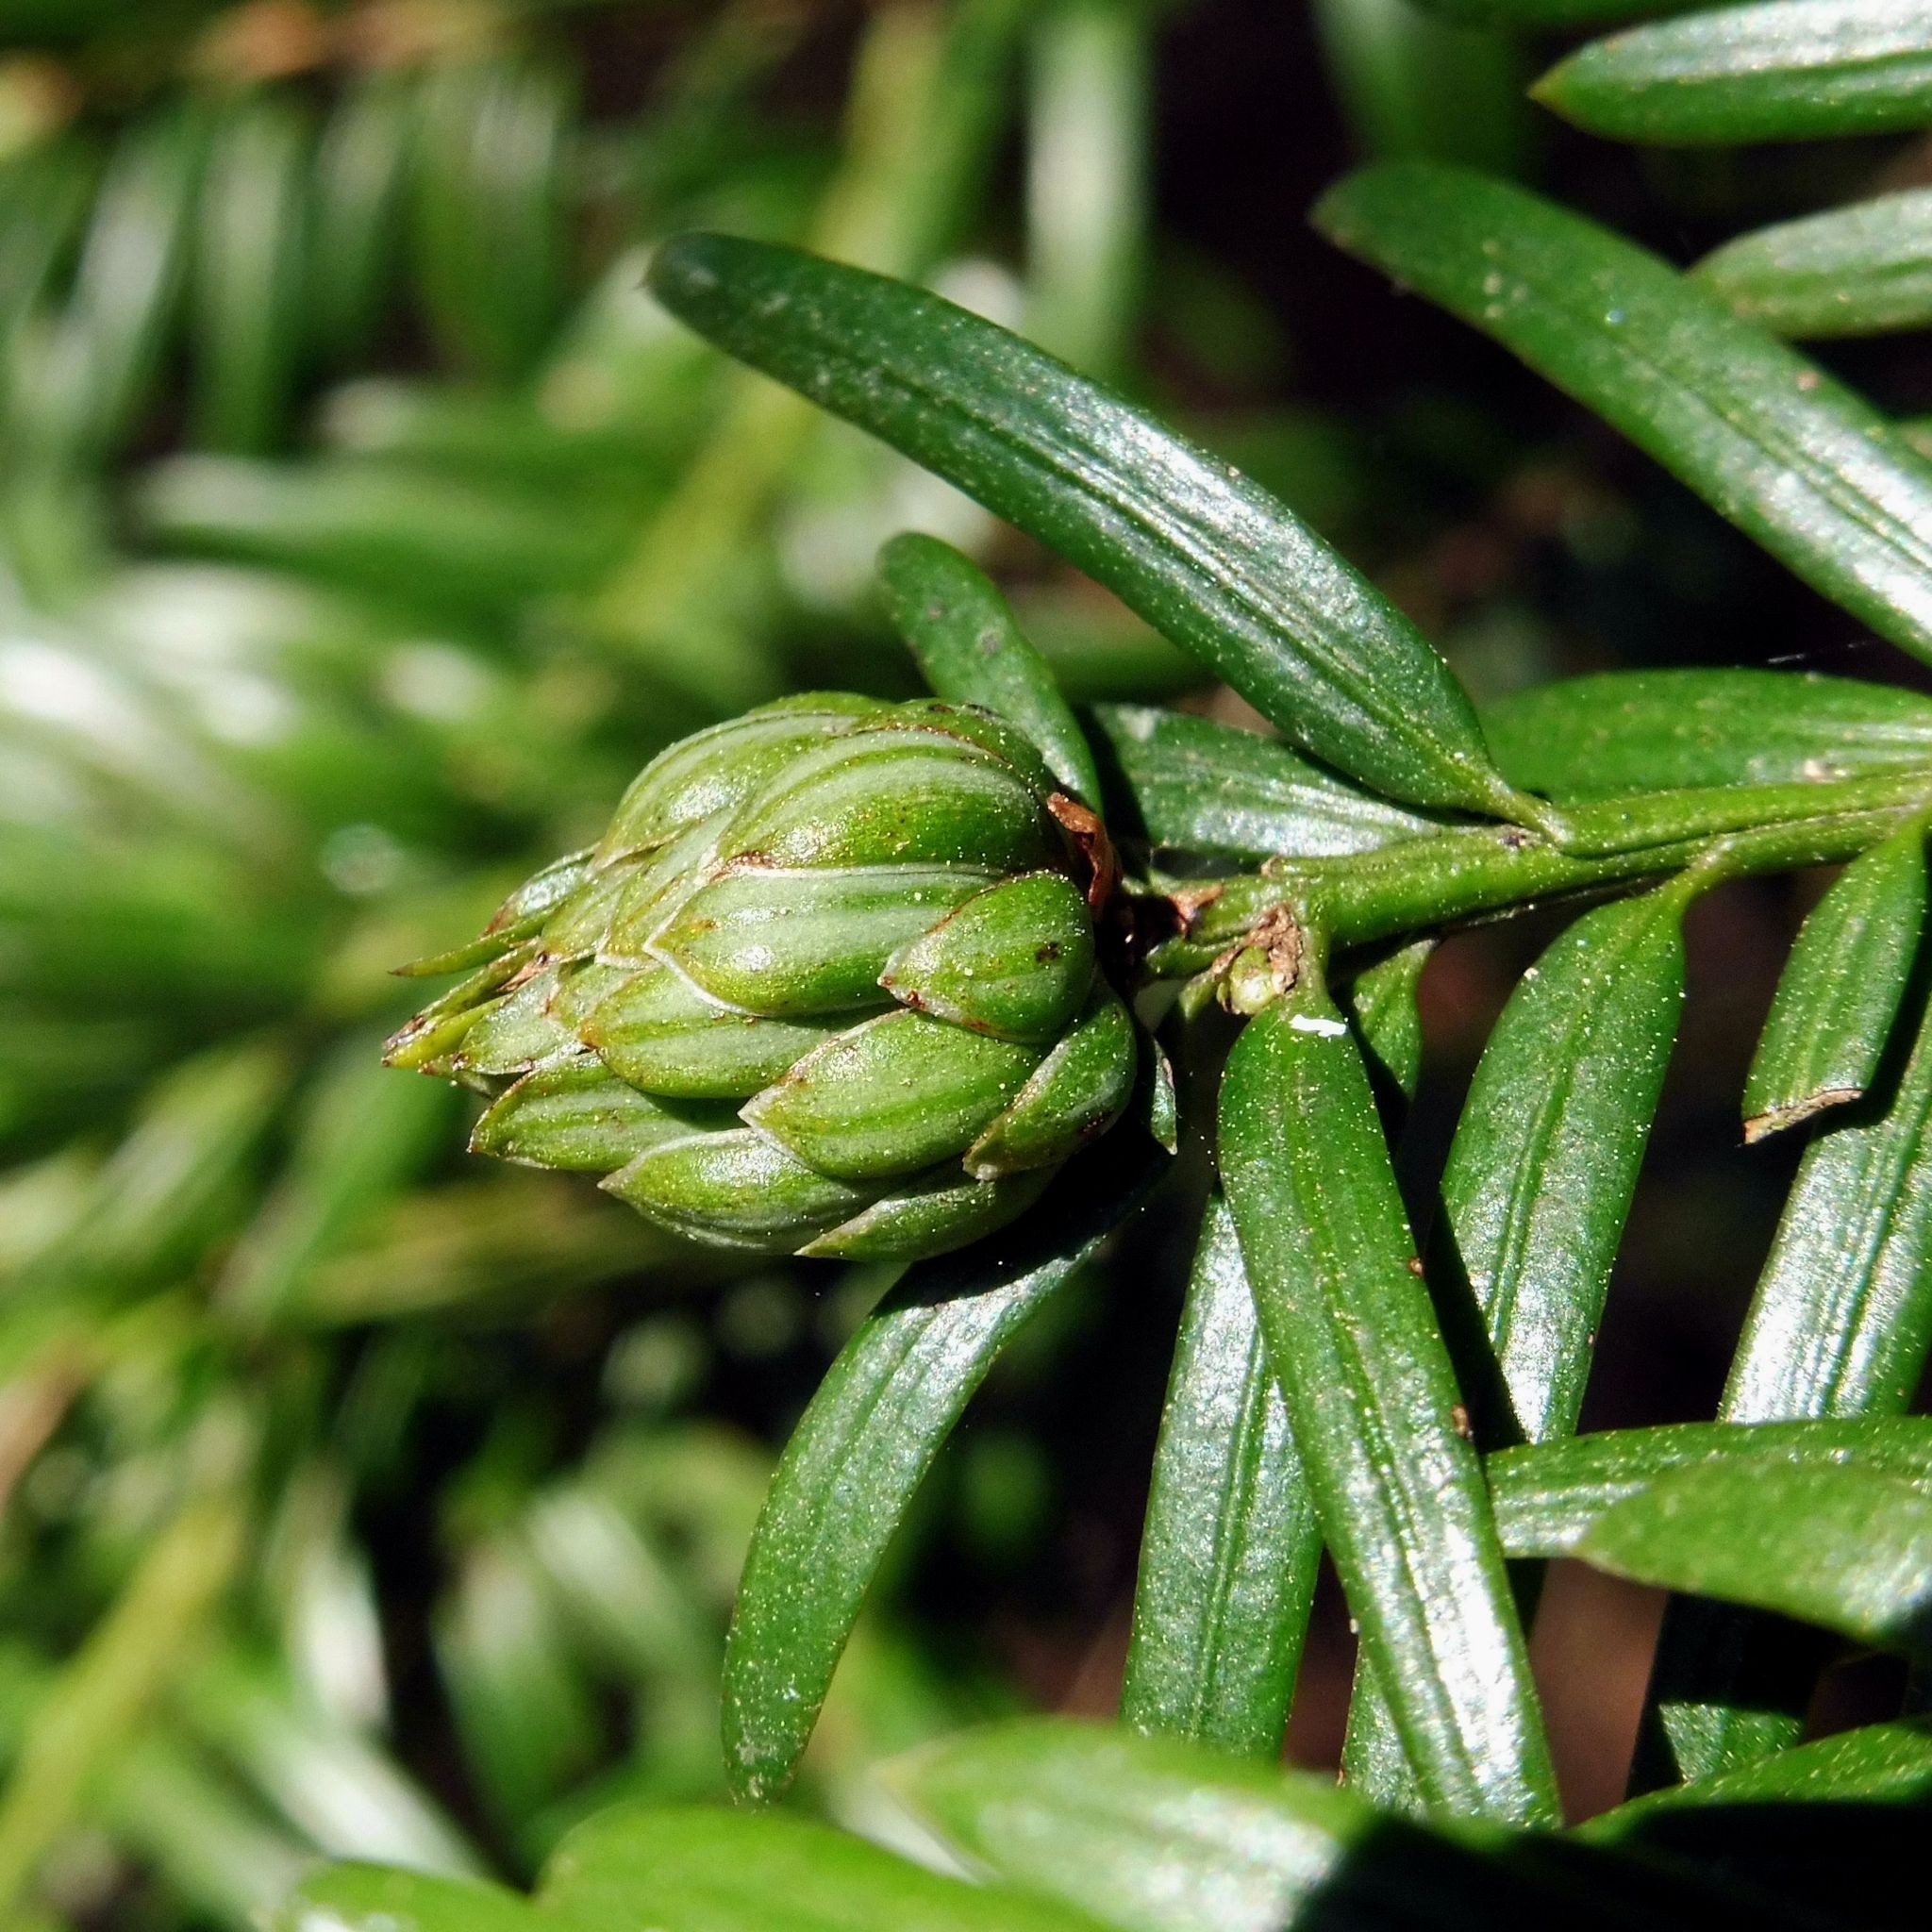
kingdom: Animalia
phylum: Arthropoda
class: Insecta
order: Diptera
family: Cecidomyiidae
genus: Taxomyia
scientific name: Taxomyia taxi
